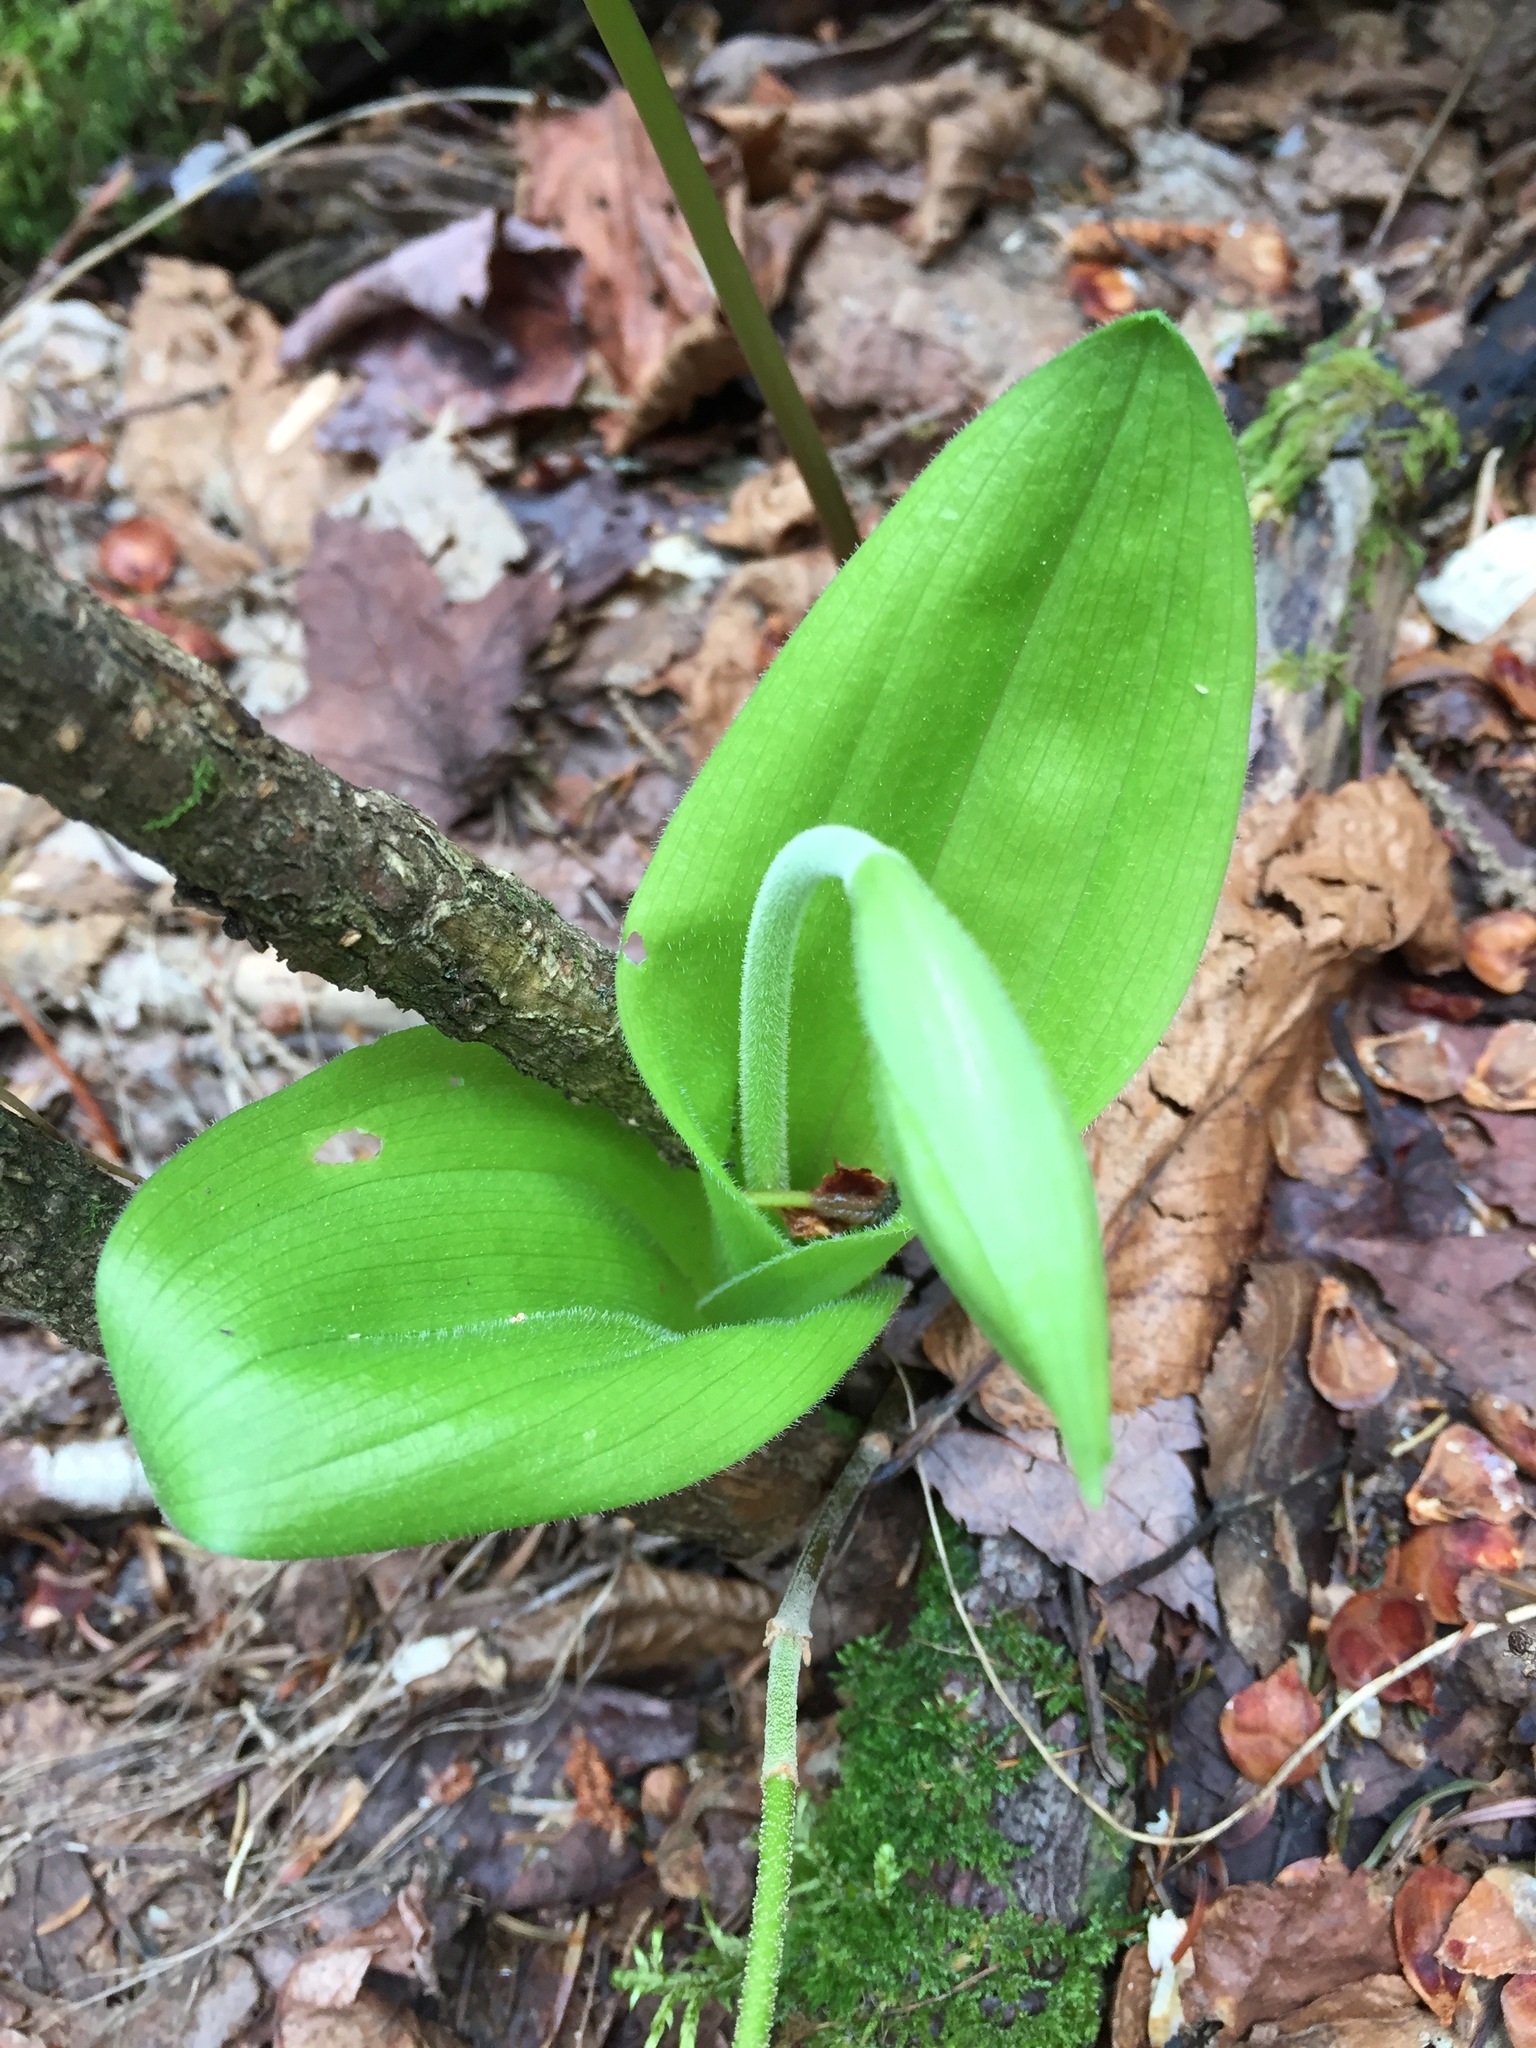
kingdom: Plantae
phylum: Tracheophyta
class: Liliopsida
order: Asparagales
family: Orchidaceae
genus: Cypripedium
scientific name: Cypripedium acaule
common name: Pink lady's-slipper
